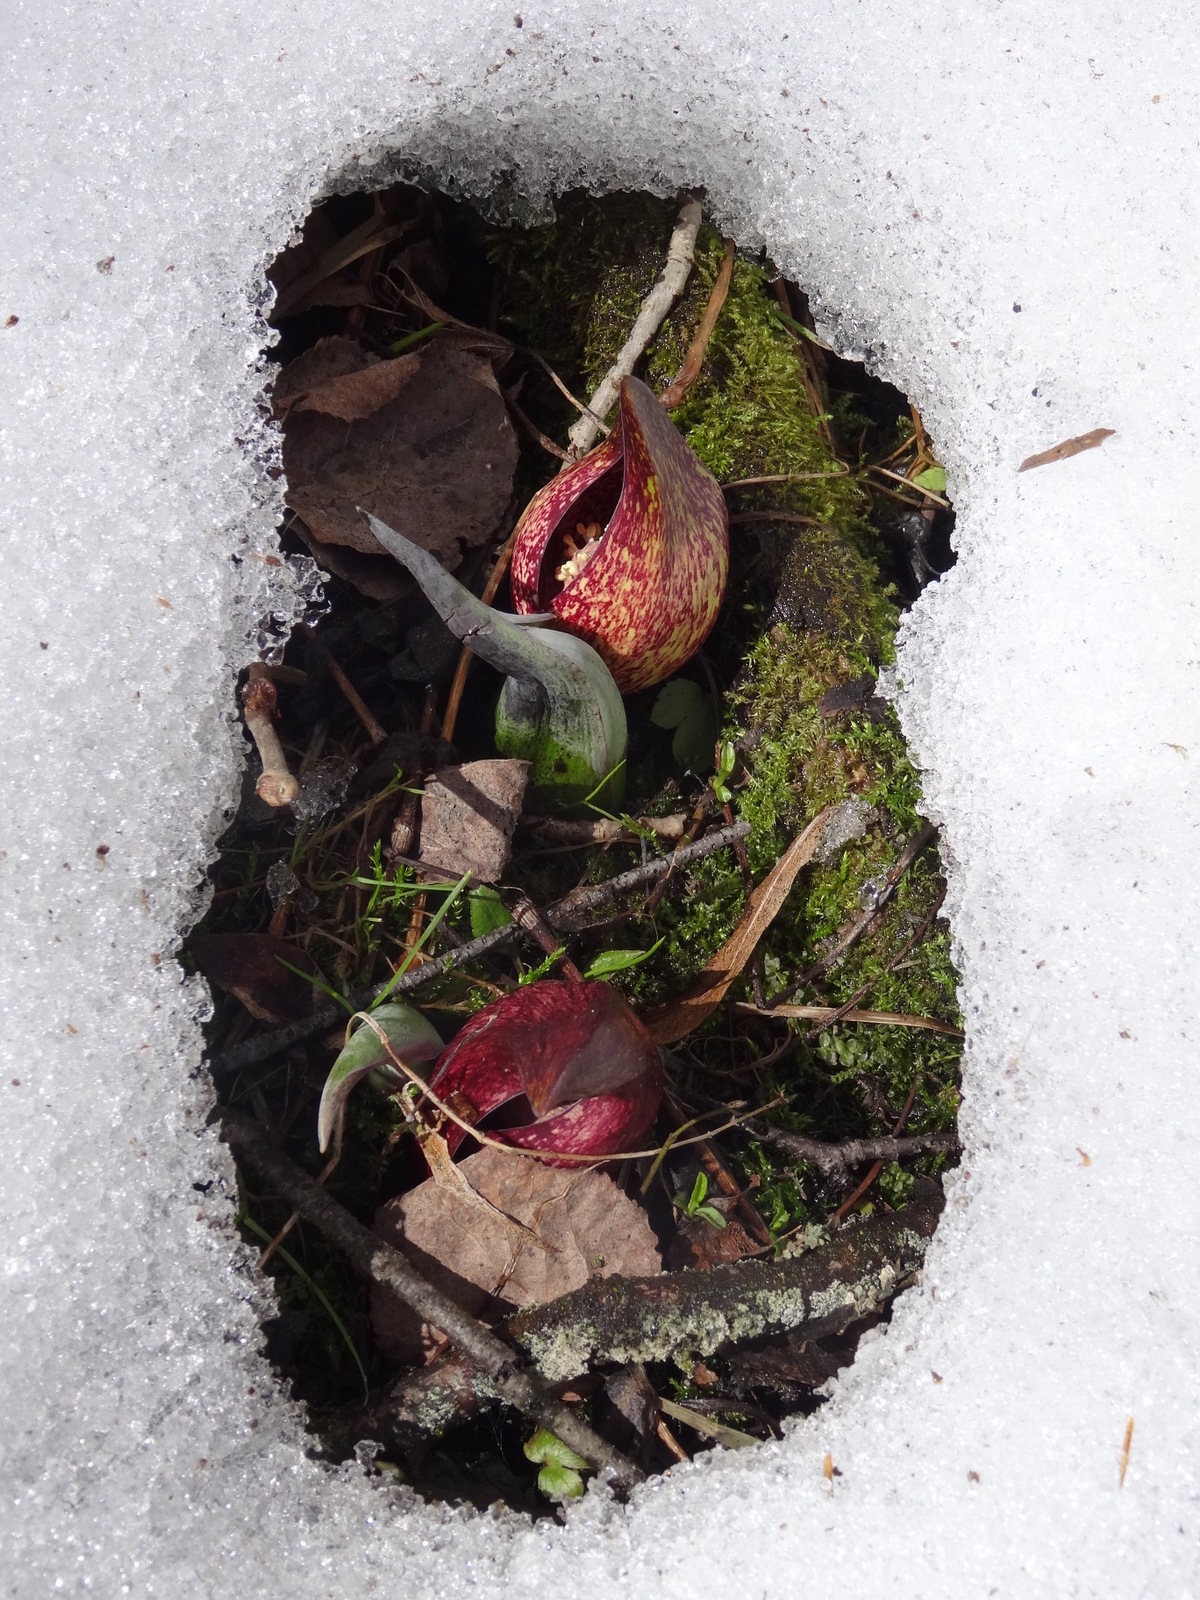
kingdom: Plantae
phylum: Tracheophyta
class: Liliopsida
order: Alismatales
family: Araceae
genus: Symplocarpus
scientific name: Symplocarpus foetidus
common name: Eastern skunk cabbage
